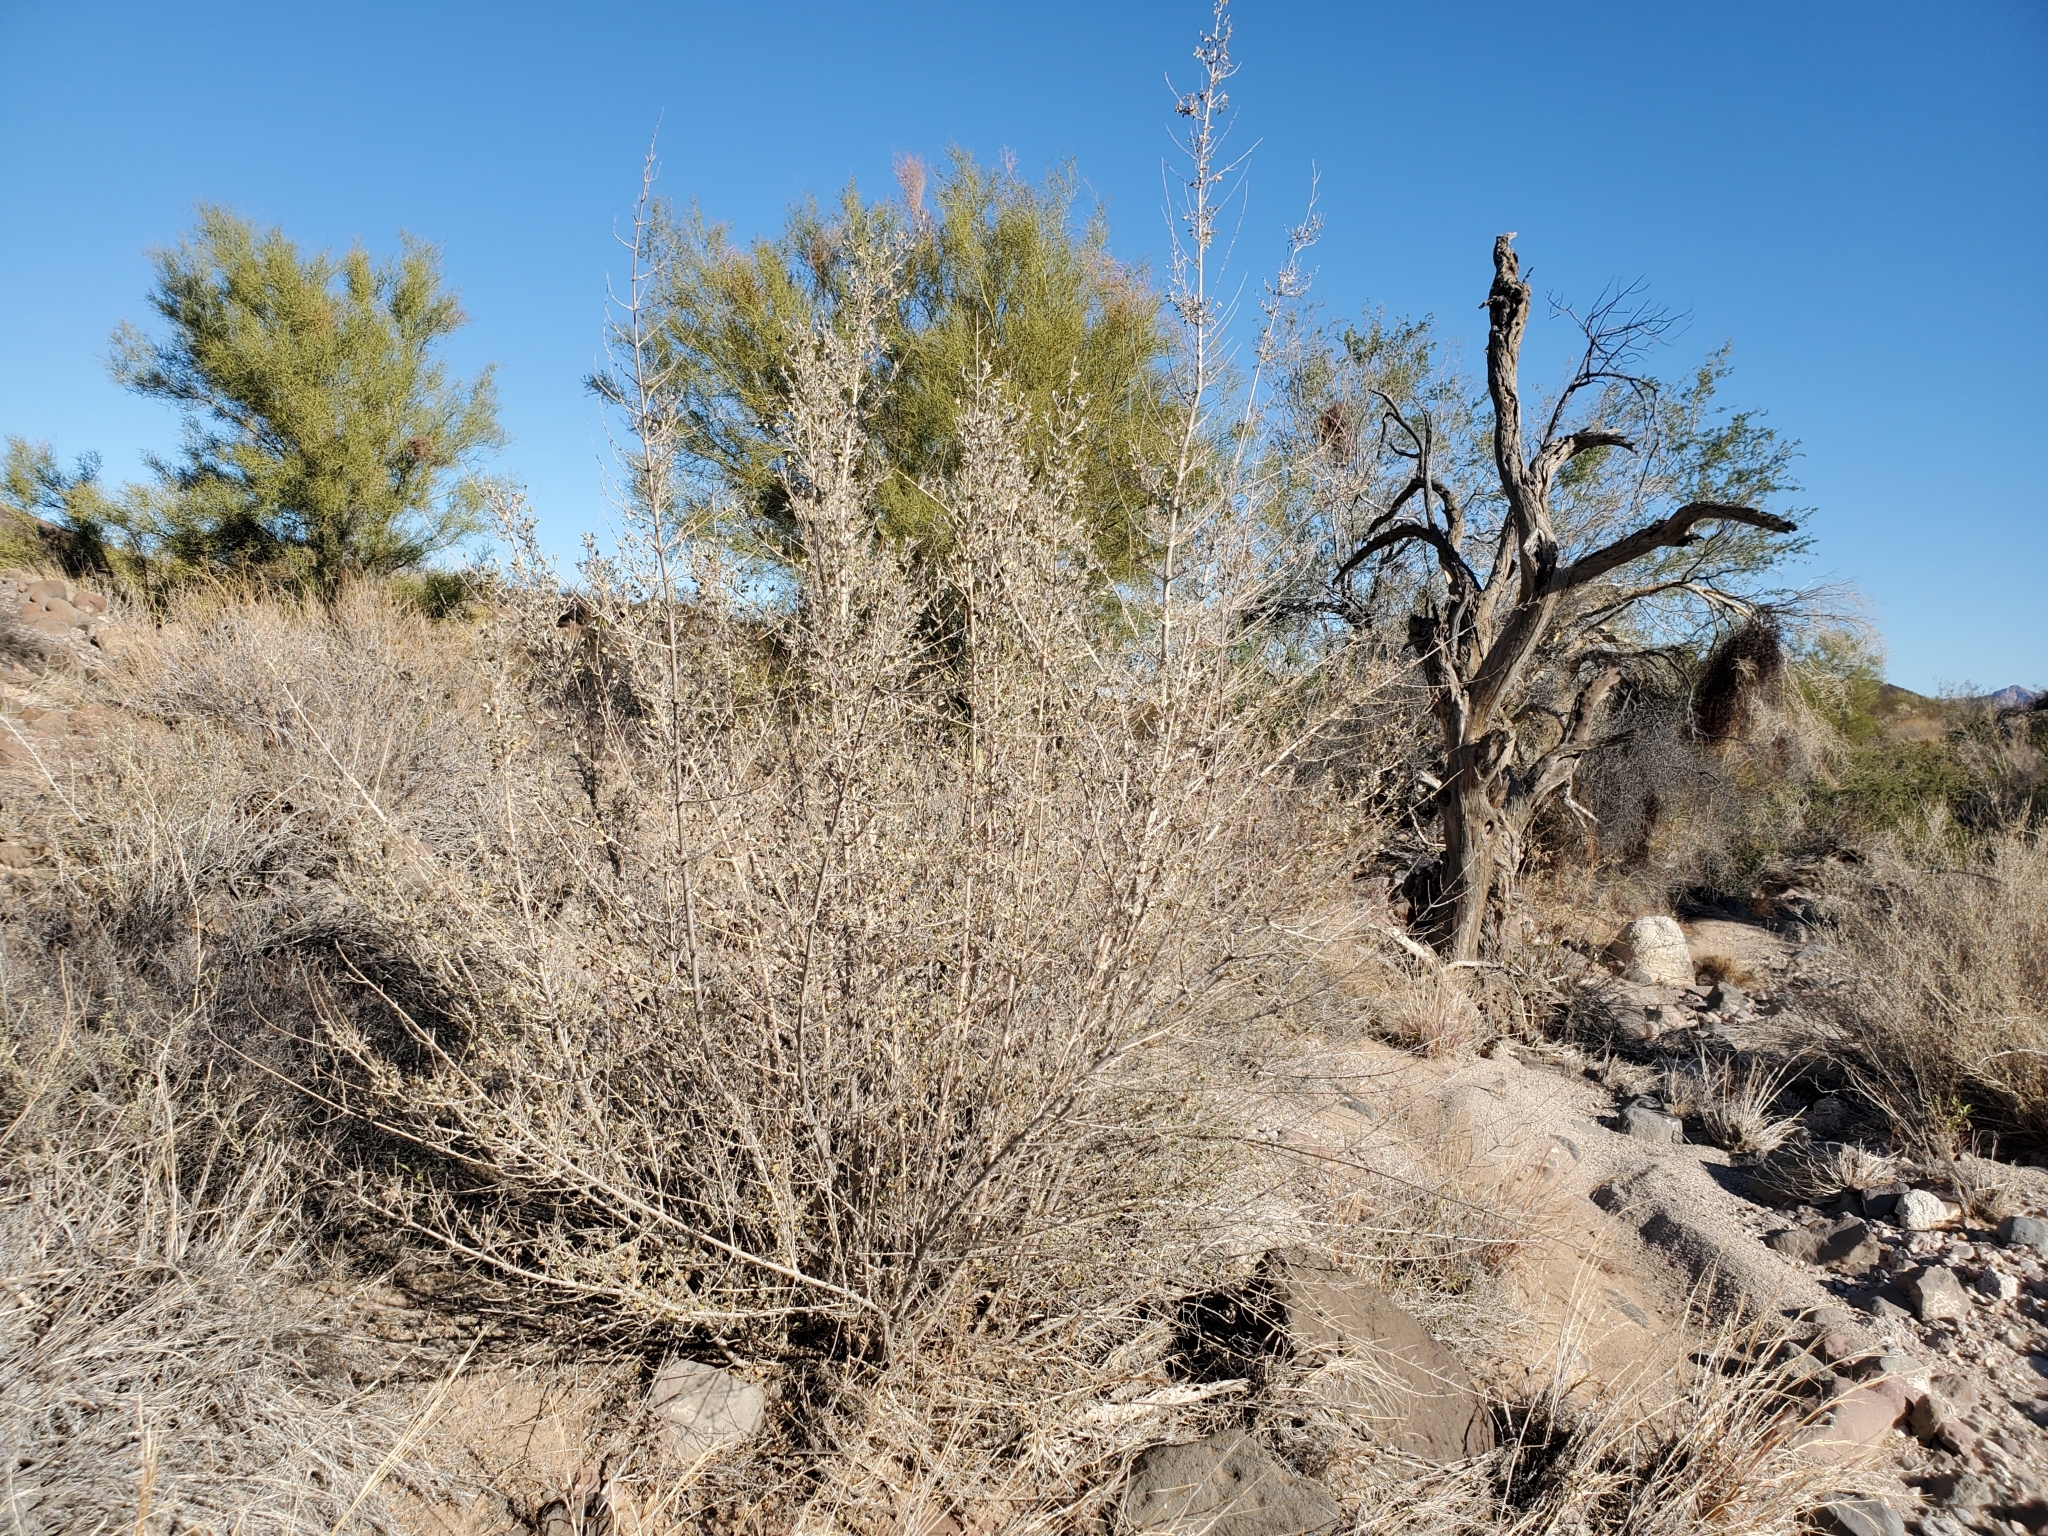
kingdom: Plantae
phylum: Tracheophyta
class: Magnoliopsida
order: Lamiales
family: Lamiaceae
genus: Condea
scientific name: Condea emoryi
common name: Chia
